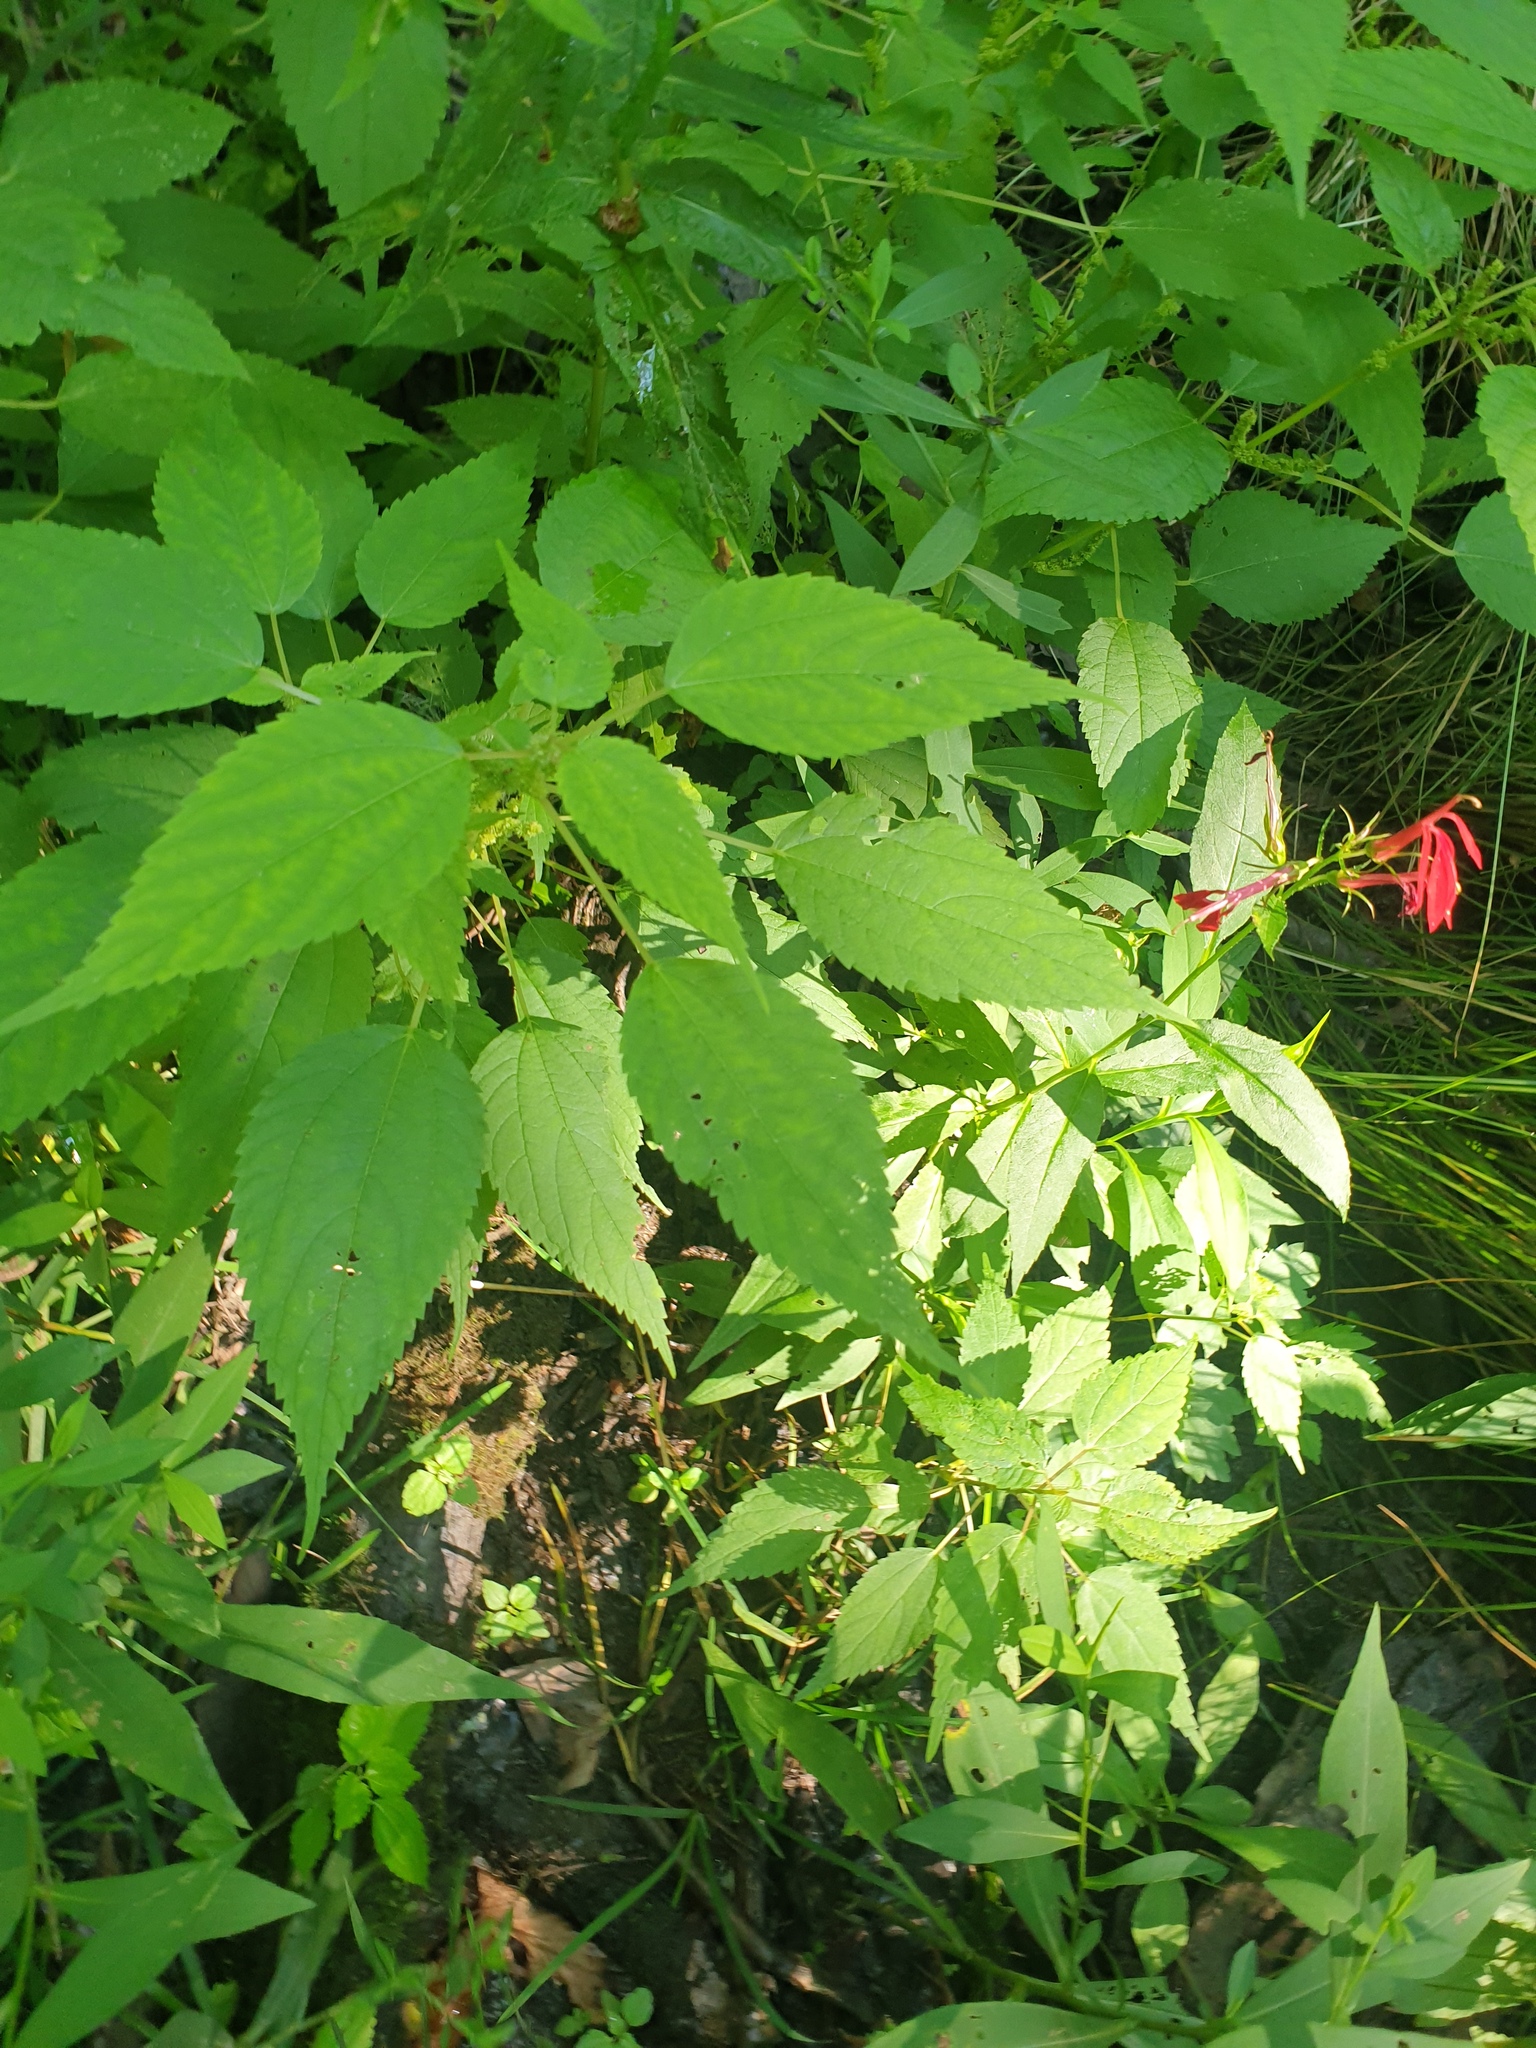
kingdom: Plantae
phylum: Tracheophyta
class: Magnoliopsida
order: Rosales
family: Urticaceae
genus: Boehmeria
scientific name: Boehmeria cylindrica
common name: Bog-hemp
